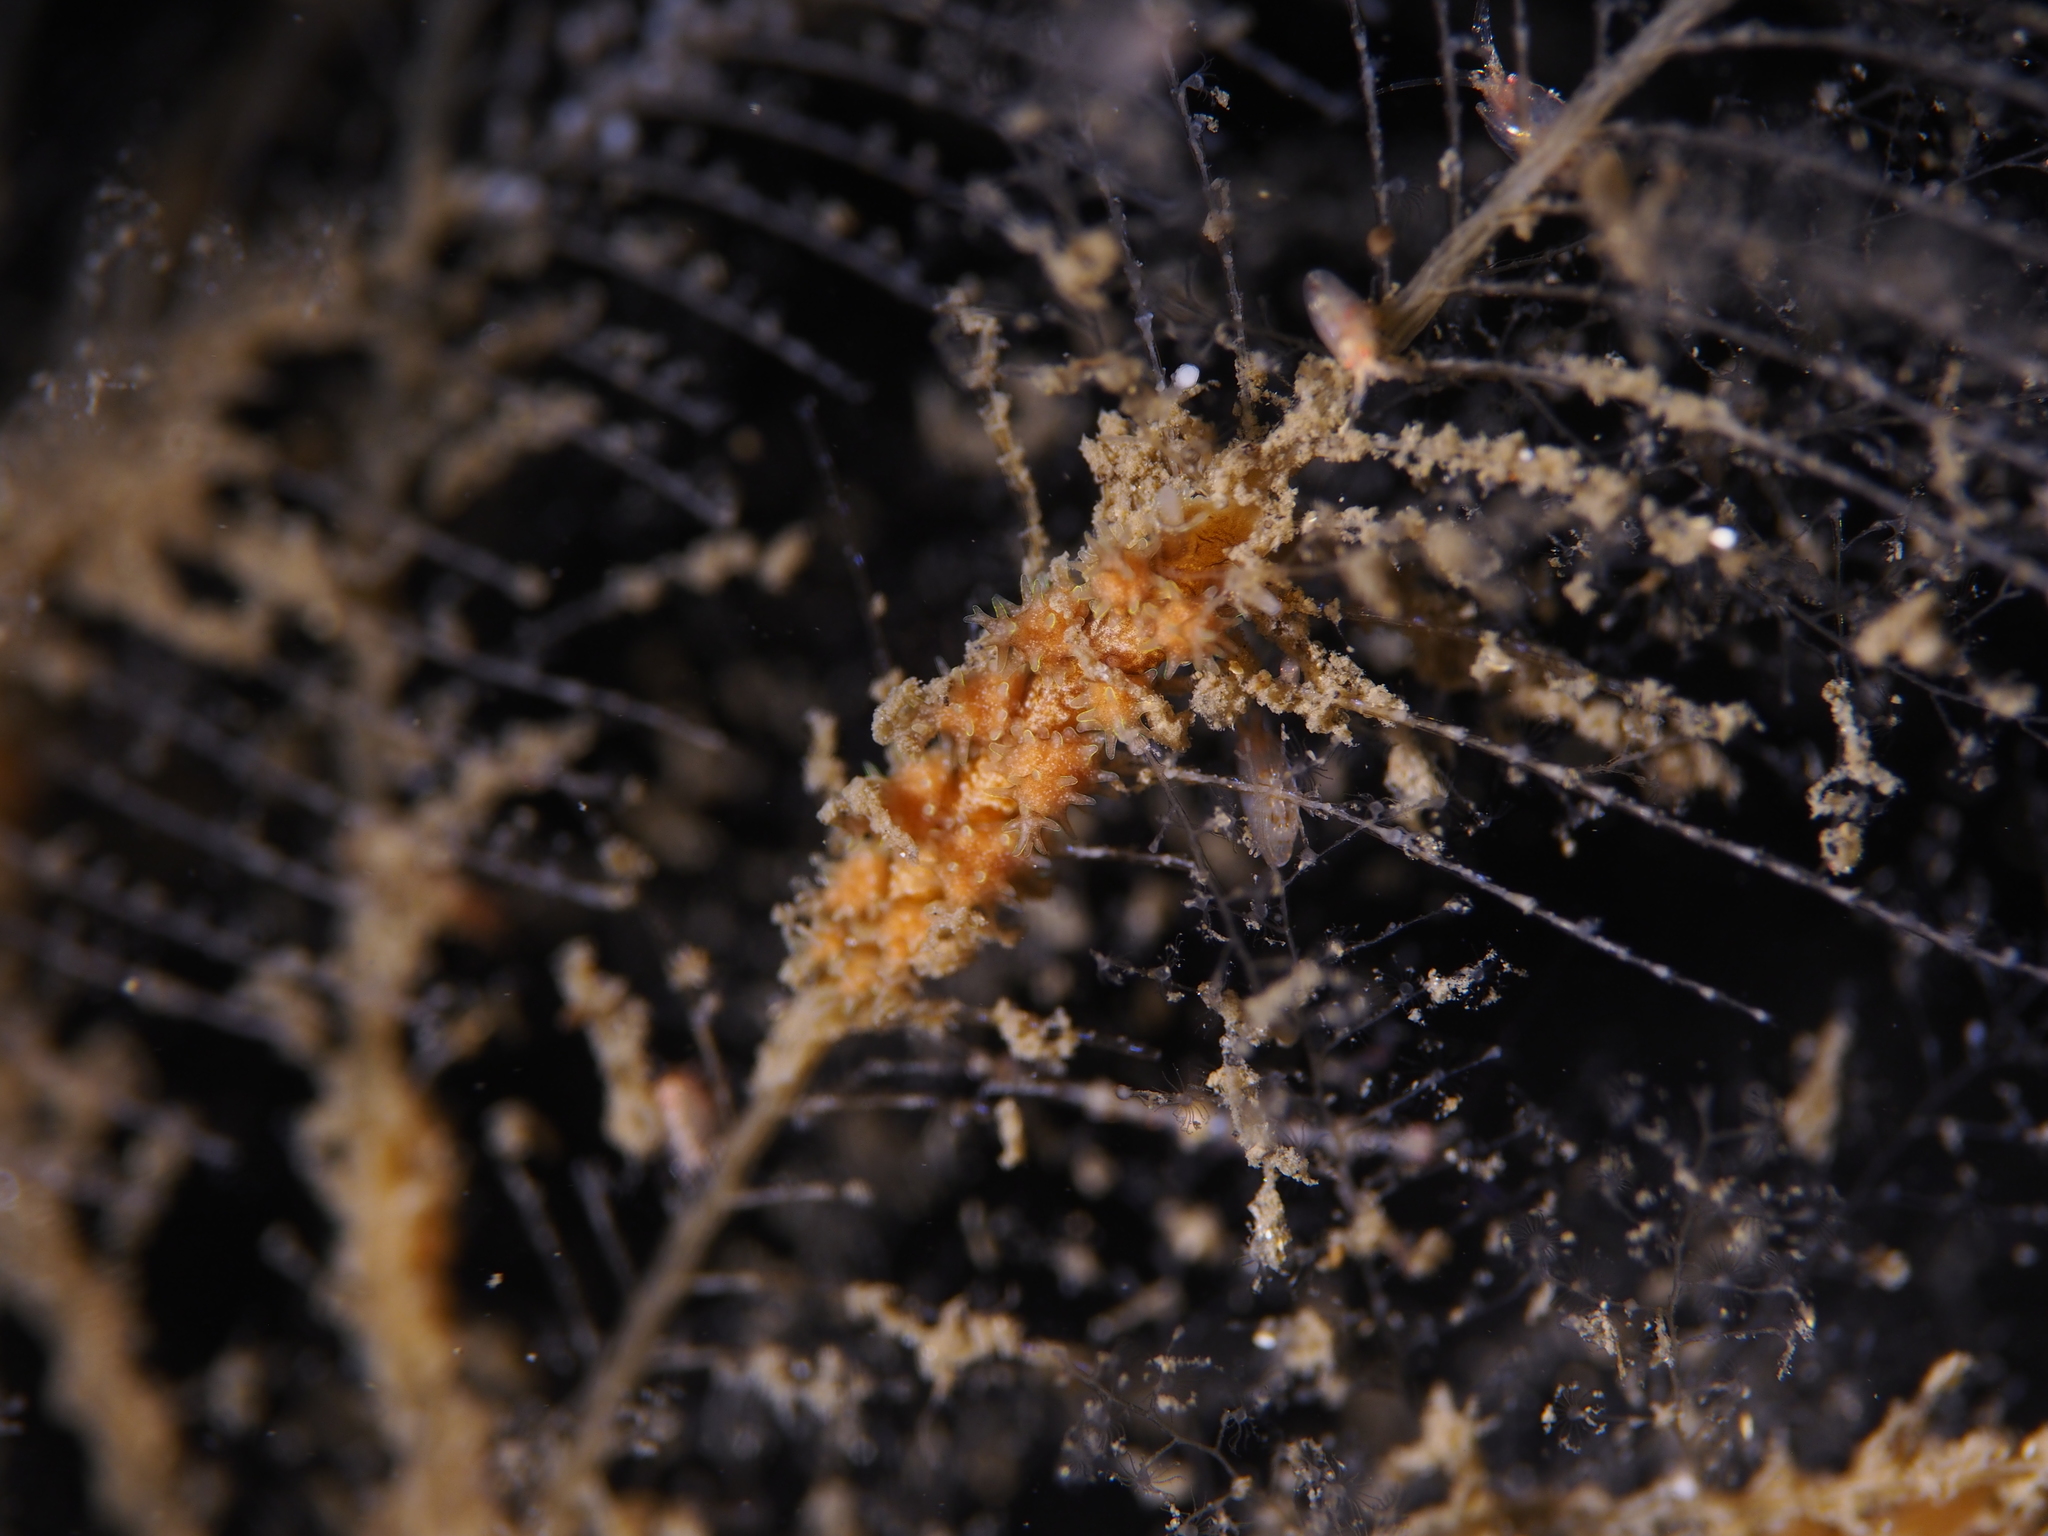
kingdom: Animalia
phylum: Mollusca
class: Gastropoda
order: Nudibranchia
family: Dotidae
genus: Doto
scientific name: Doto hystrix
